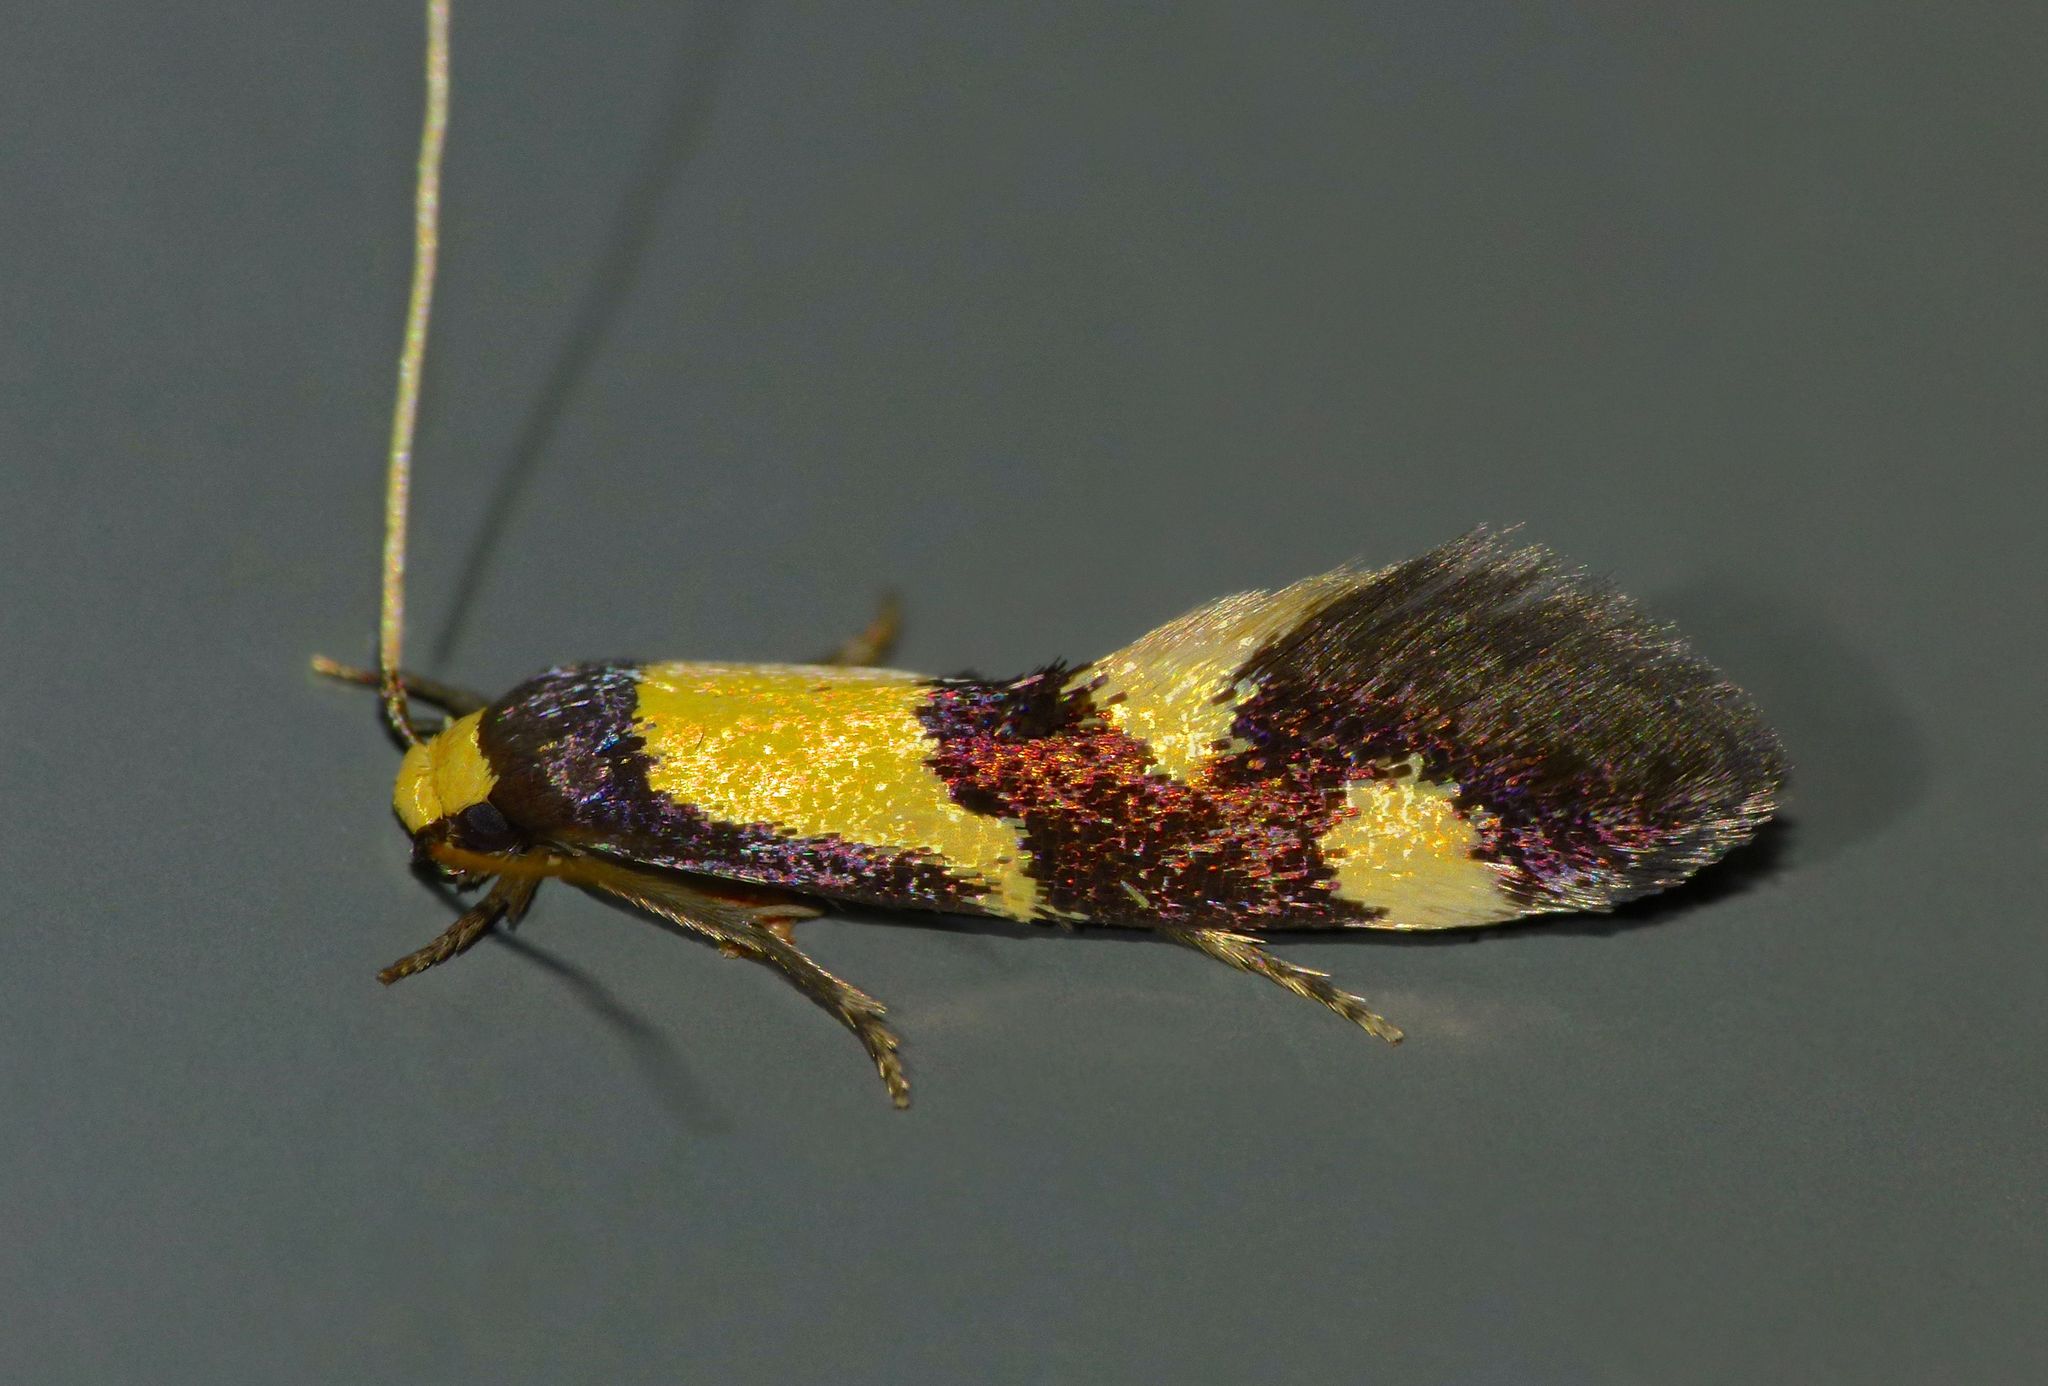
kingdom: Animalia
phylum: Arthropoda
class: Insecta
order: Lepidoptera
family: Tineidae
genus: Opogona
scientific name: Opogona comptella
